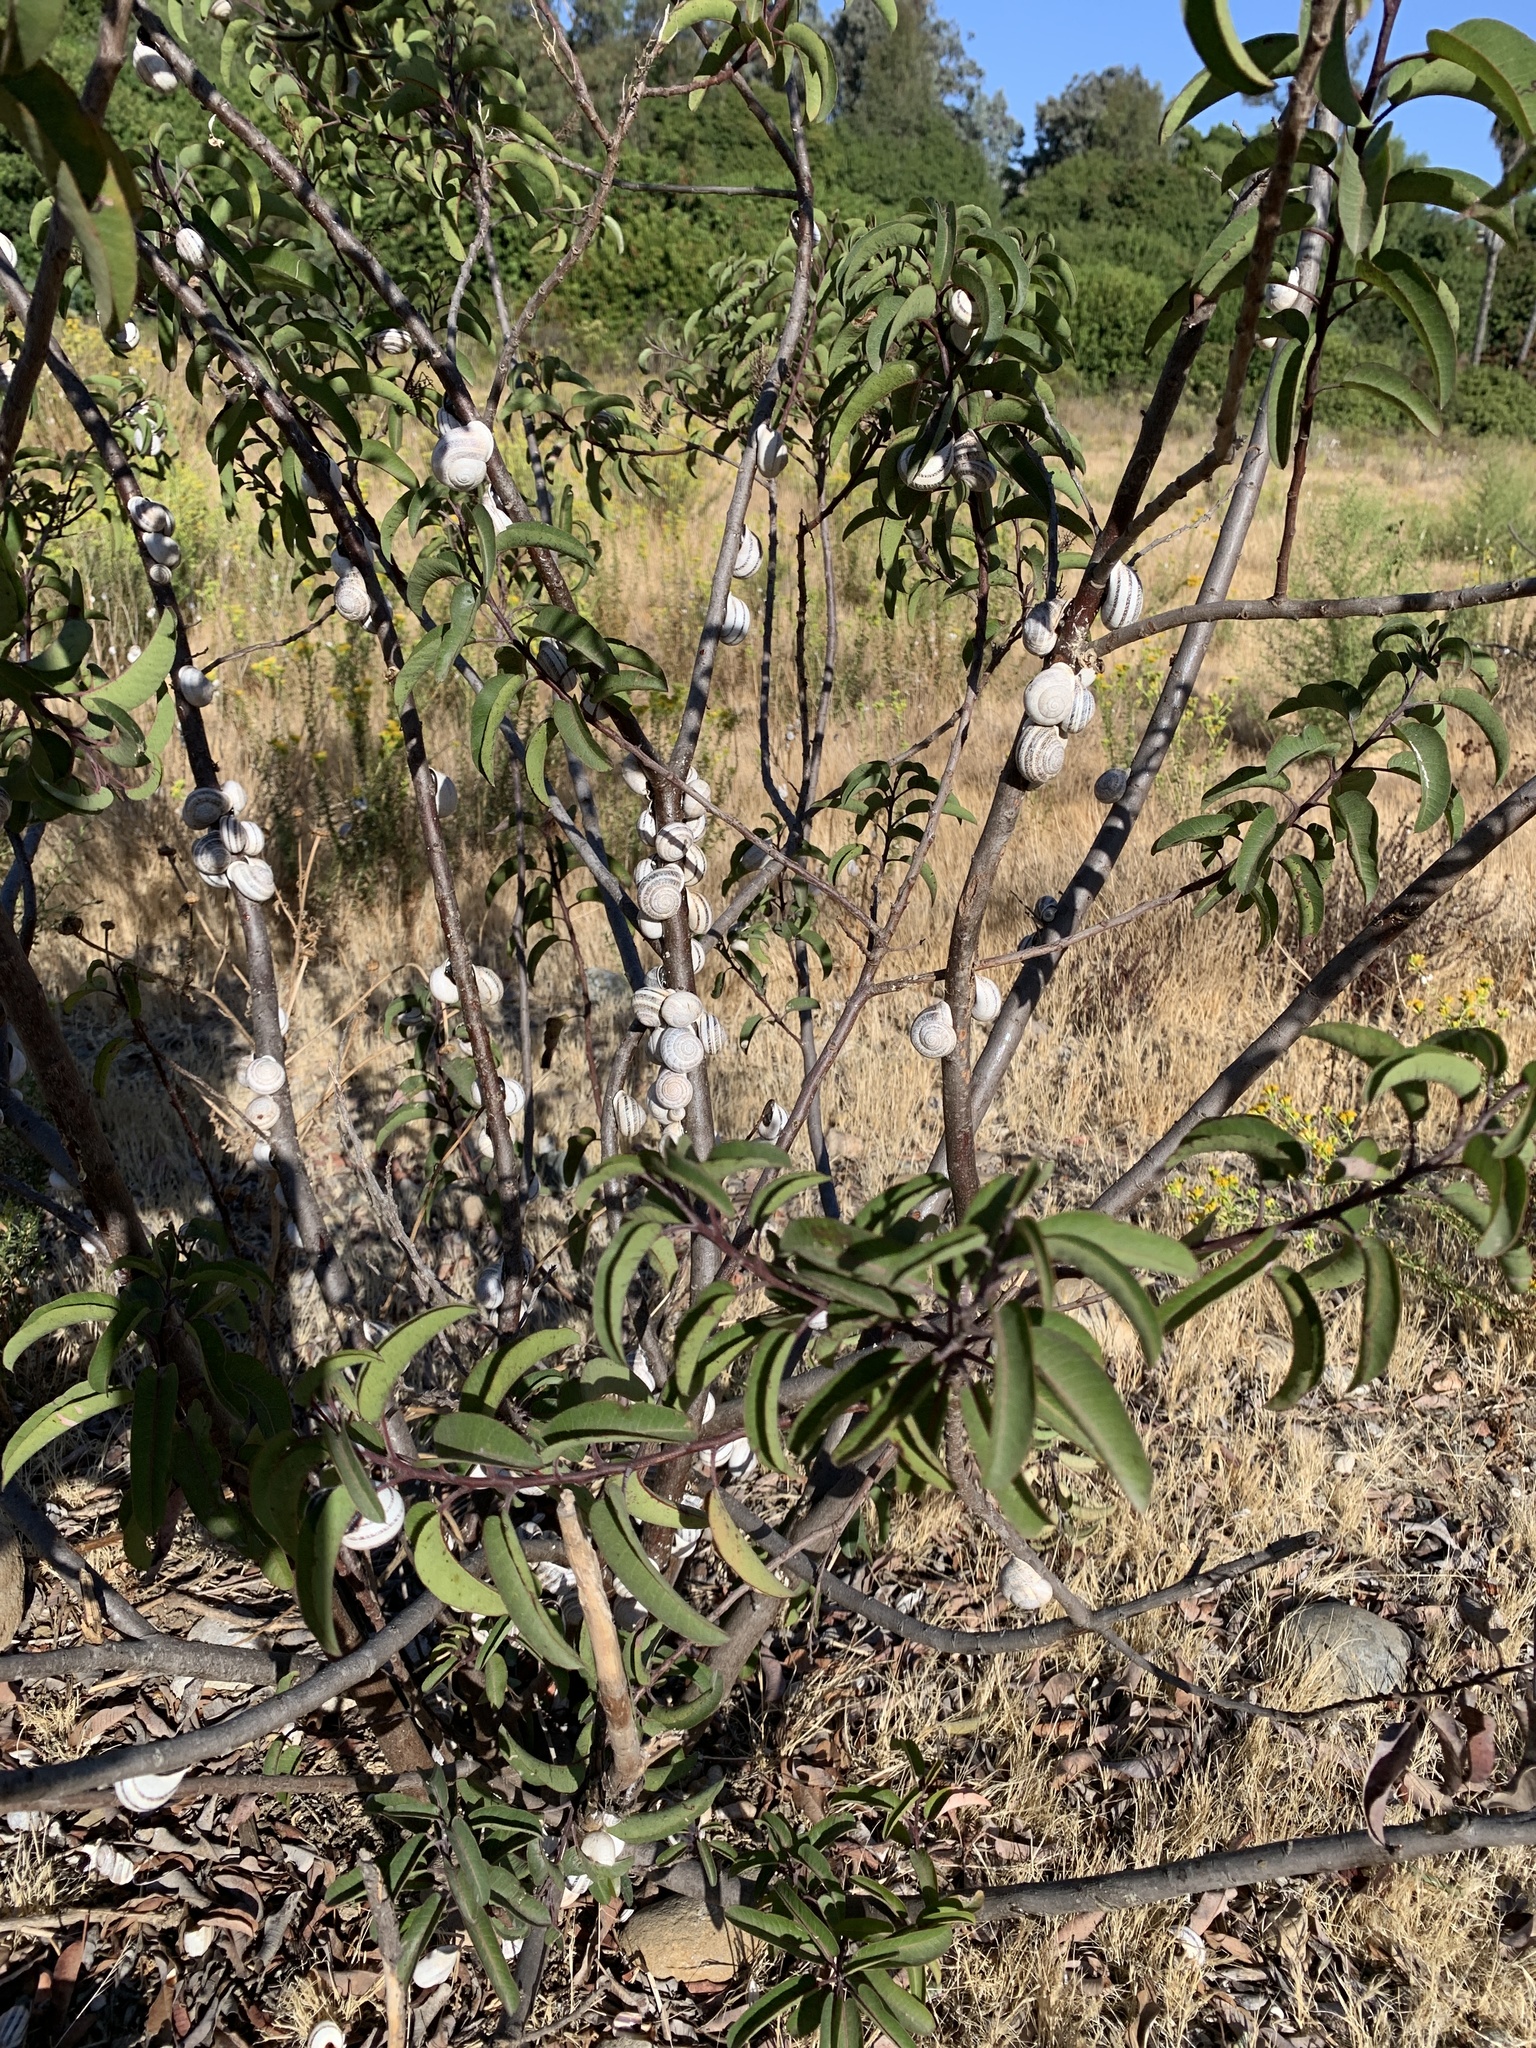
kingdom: Animalia
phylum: Mollusca
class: Gastropoda
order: Stylommatophora
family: Helicidae
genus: Otala
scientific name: Otala lactea
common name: Milk snail
